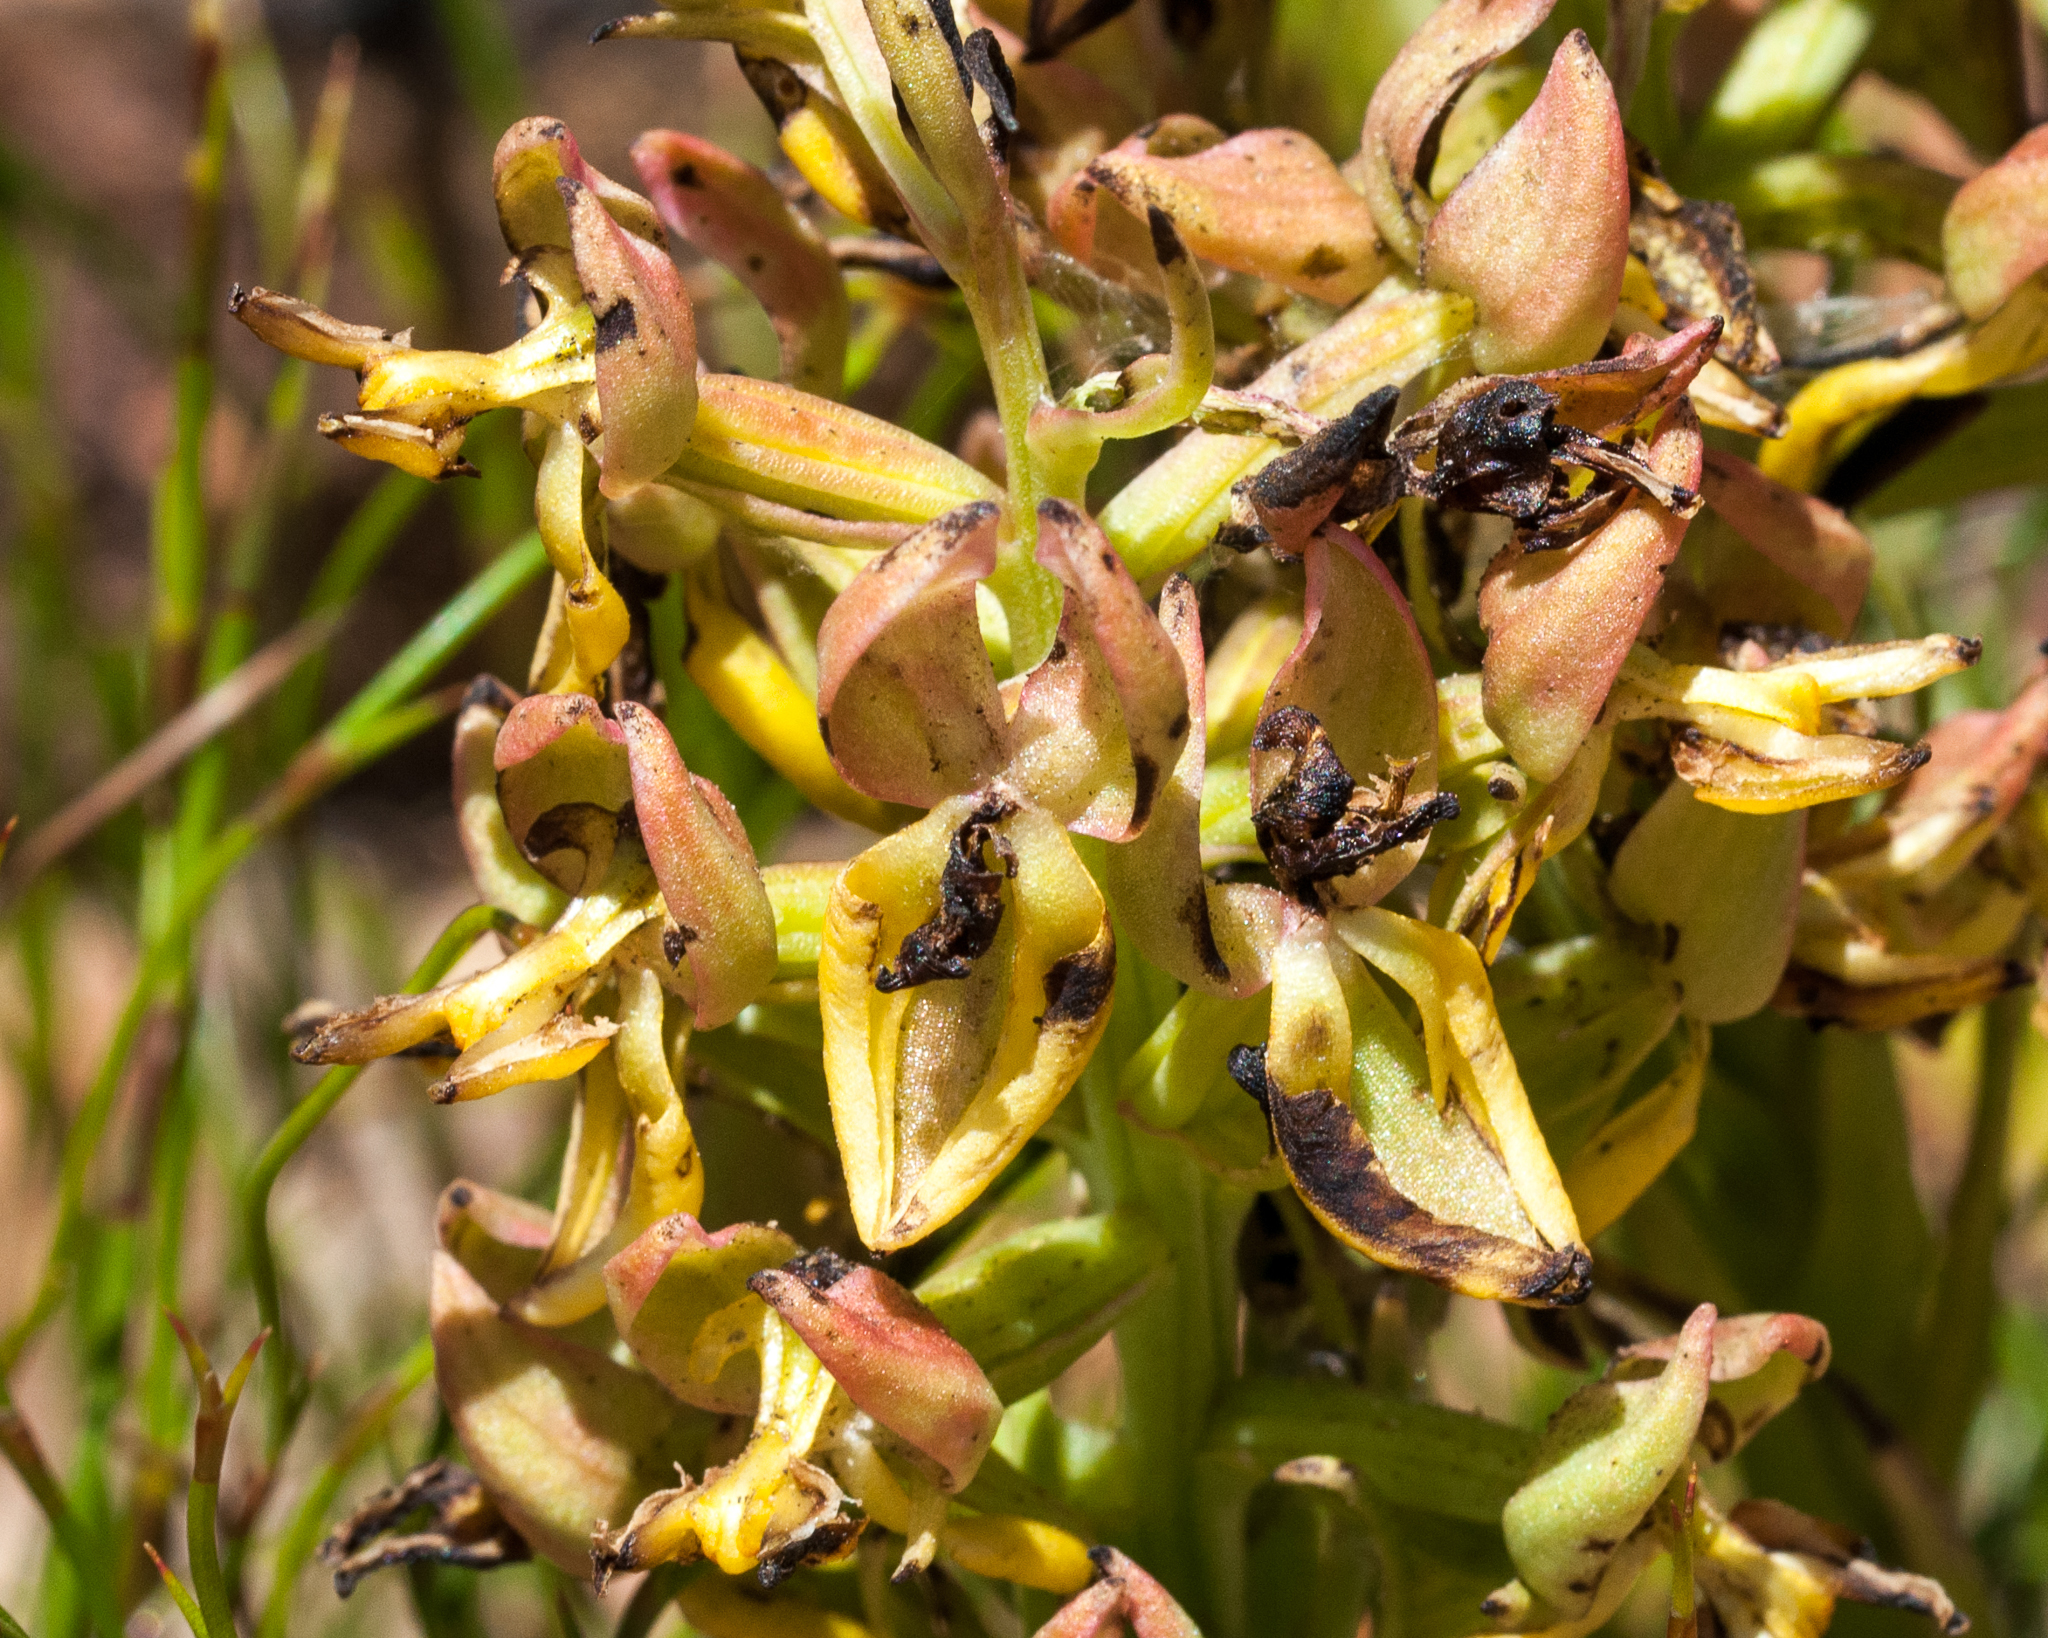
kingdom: Plantae
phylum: Tracheophyta
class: Liliopsida
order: Asparagales
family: Orchidaceae
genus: Ceratandra
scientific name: Ceratandra atrata
